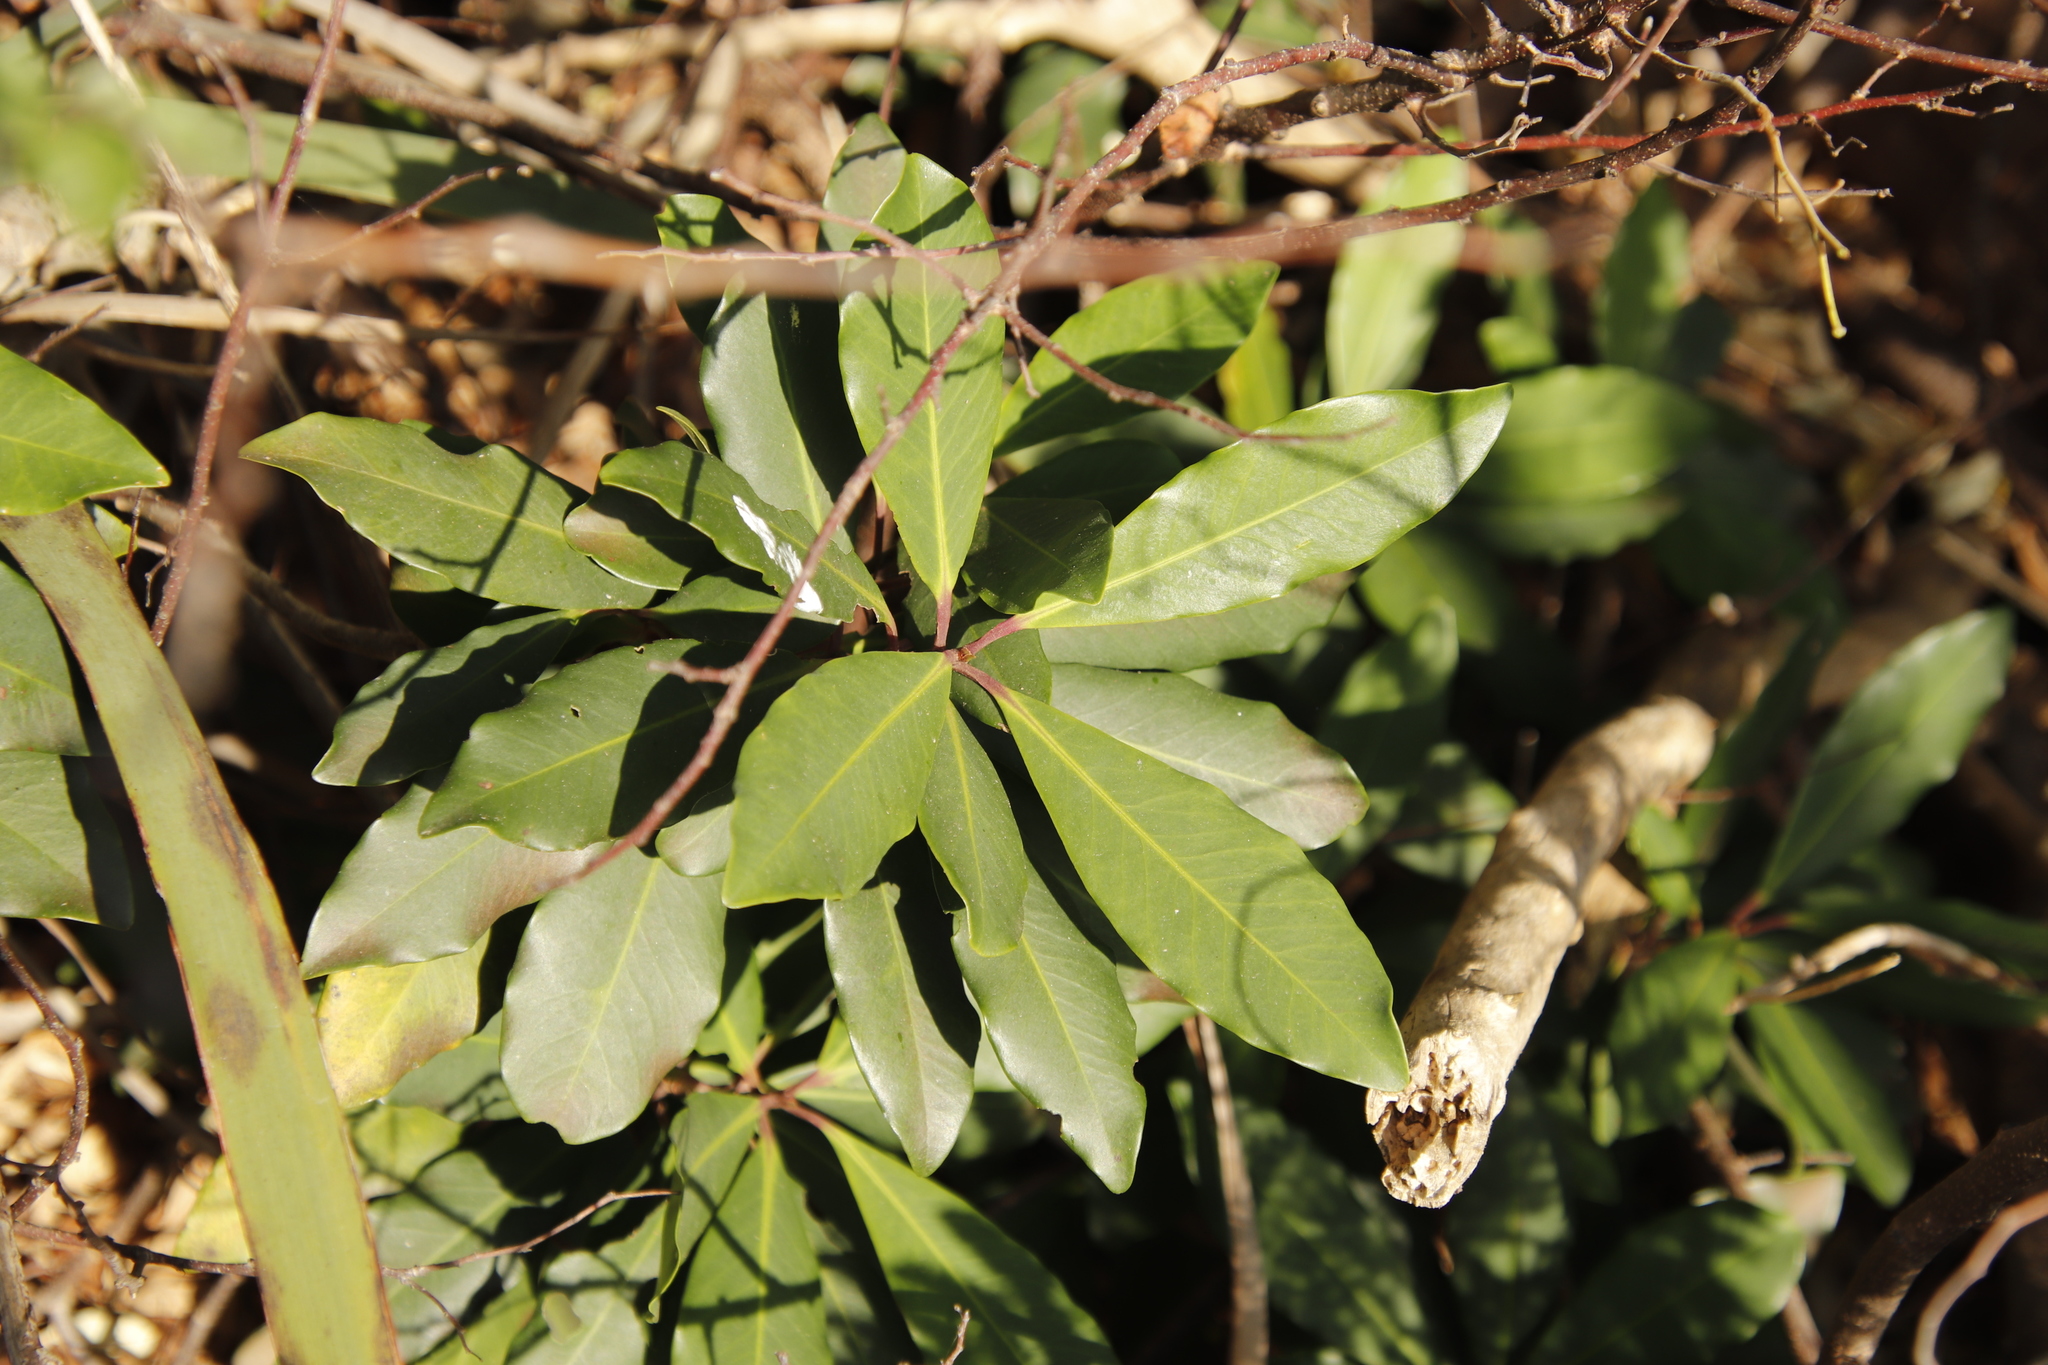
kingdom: Plantae
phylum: Tracheophyta
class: Magnoliopsida
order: Ericales
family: Primulaceae
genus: Myrsine
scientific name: Myrsine melanophloeos
